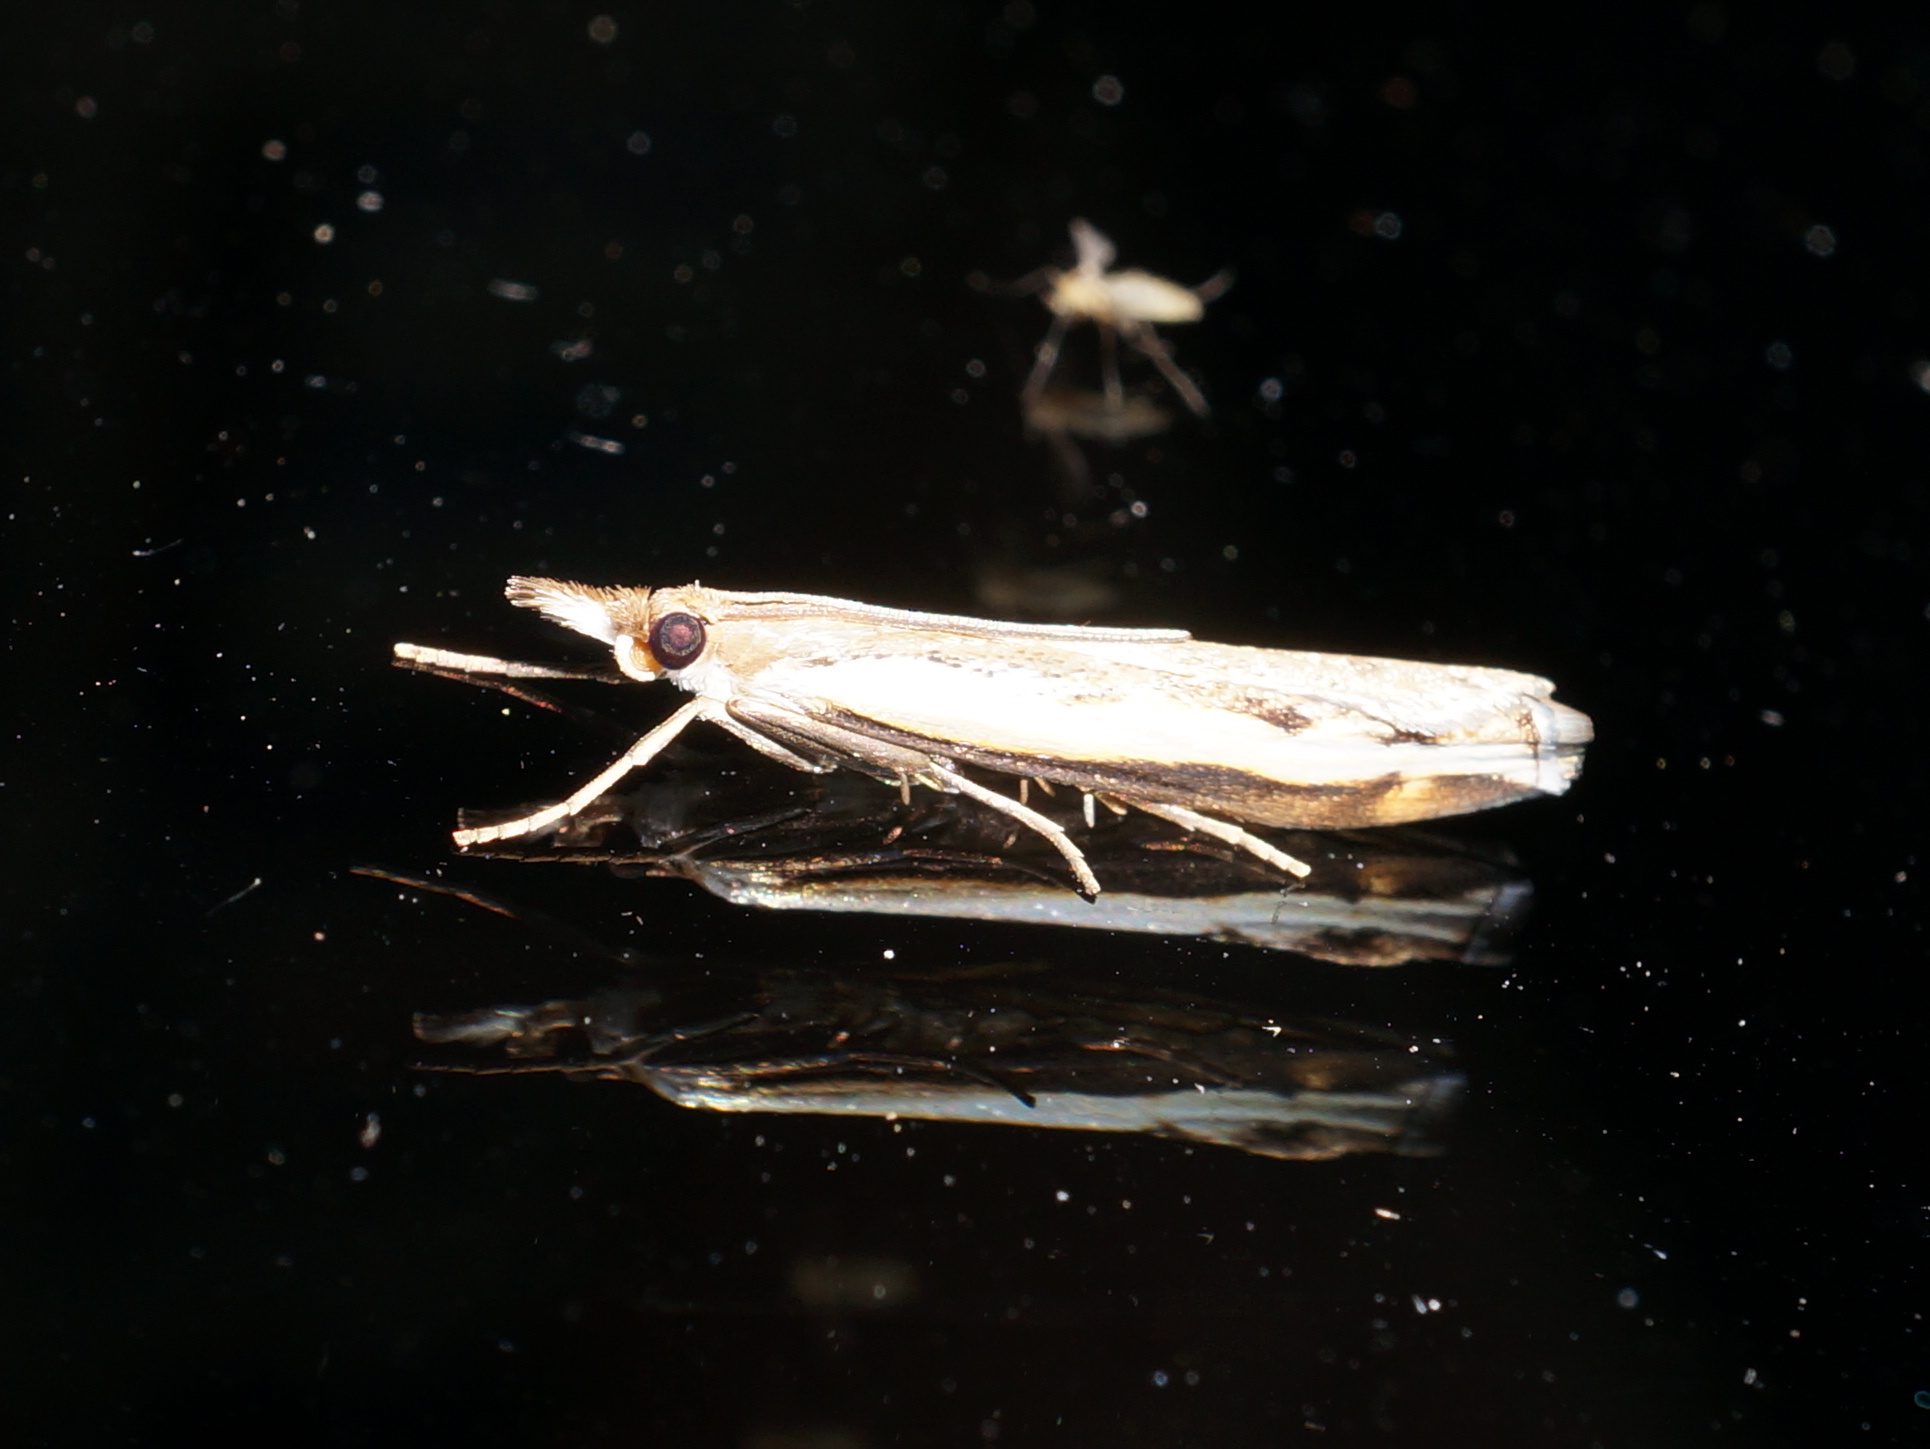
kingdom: Animalia
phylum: Arthropoda
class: Insecta
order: Lepidoptera
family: Crambidae
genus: Orocrambus
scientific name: Orocrambus flexuosellus
